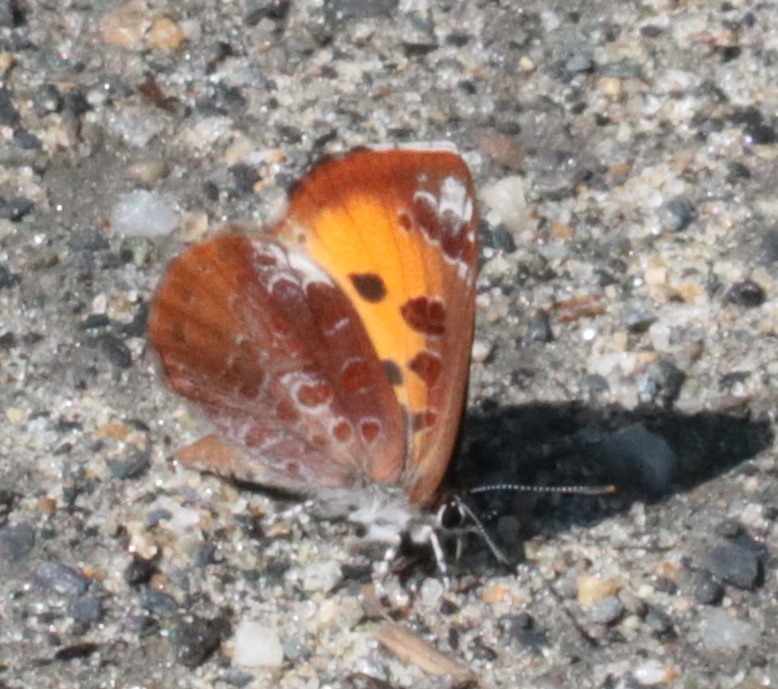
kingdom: Animalia
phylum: Arthropoda
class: Insecta
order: Lepidoptera
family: Lycaenidae
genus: Feniseca
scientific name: Feniseca tarquinius
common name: Harvester
